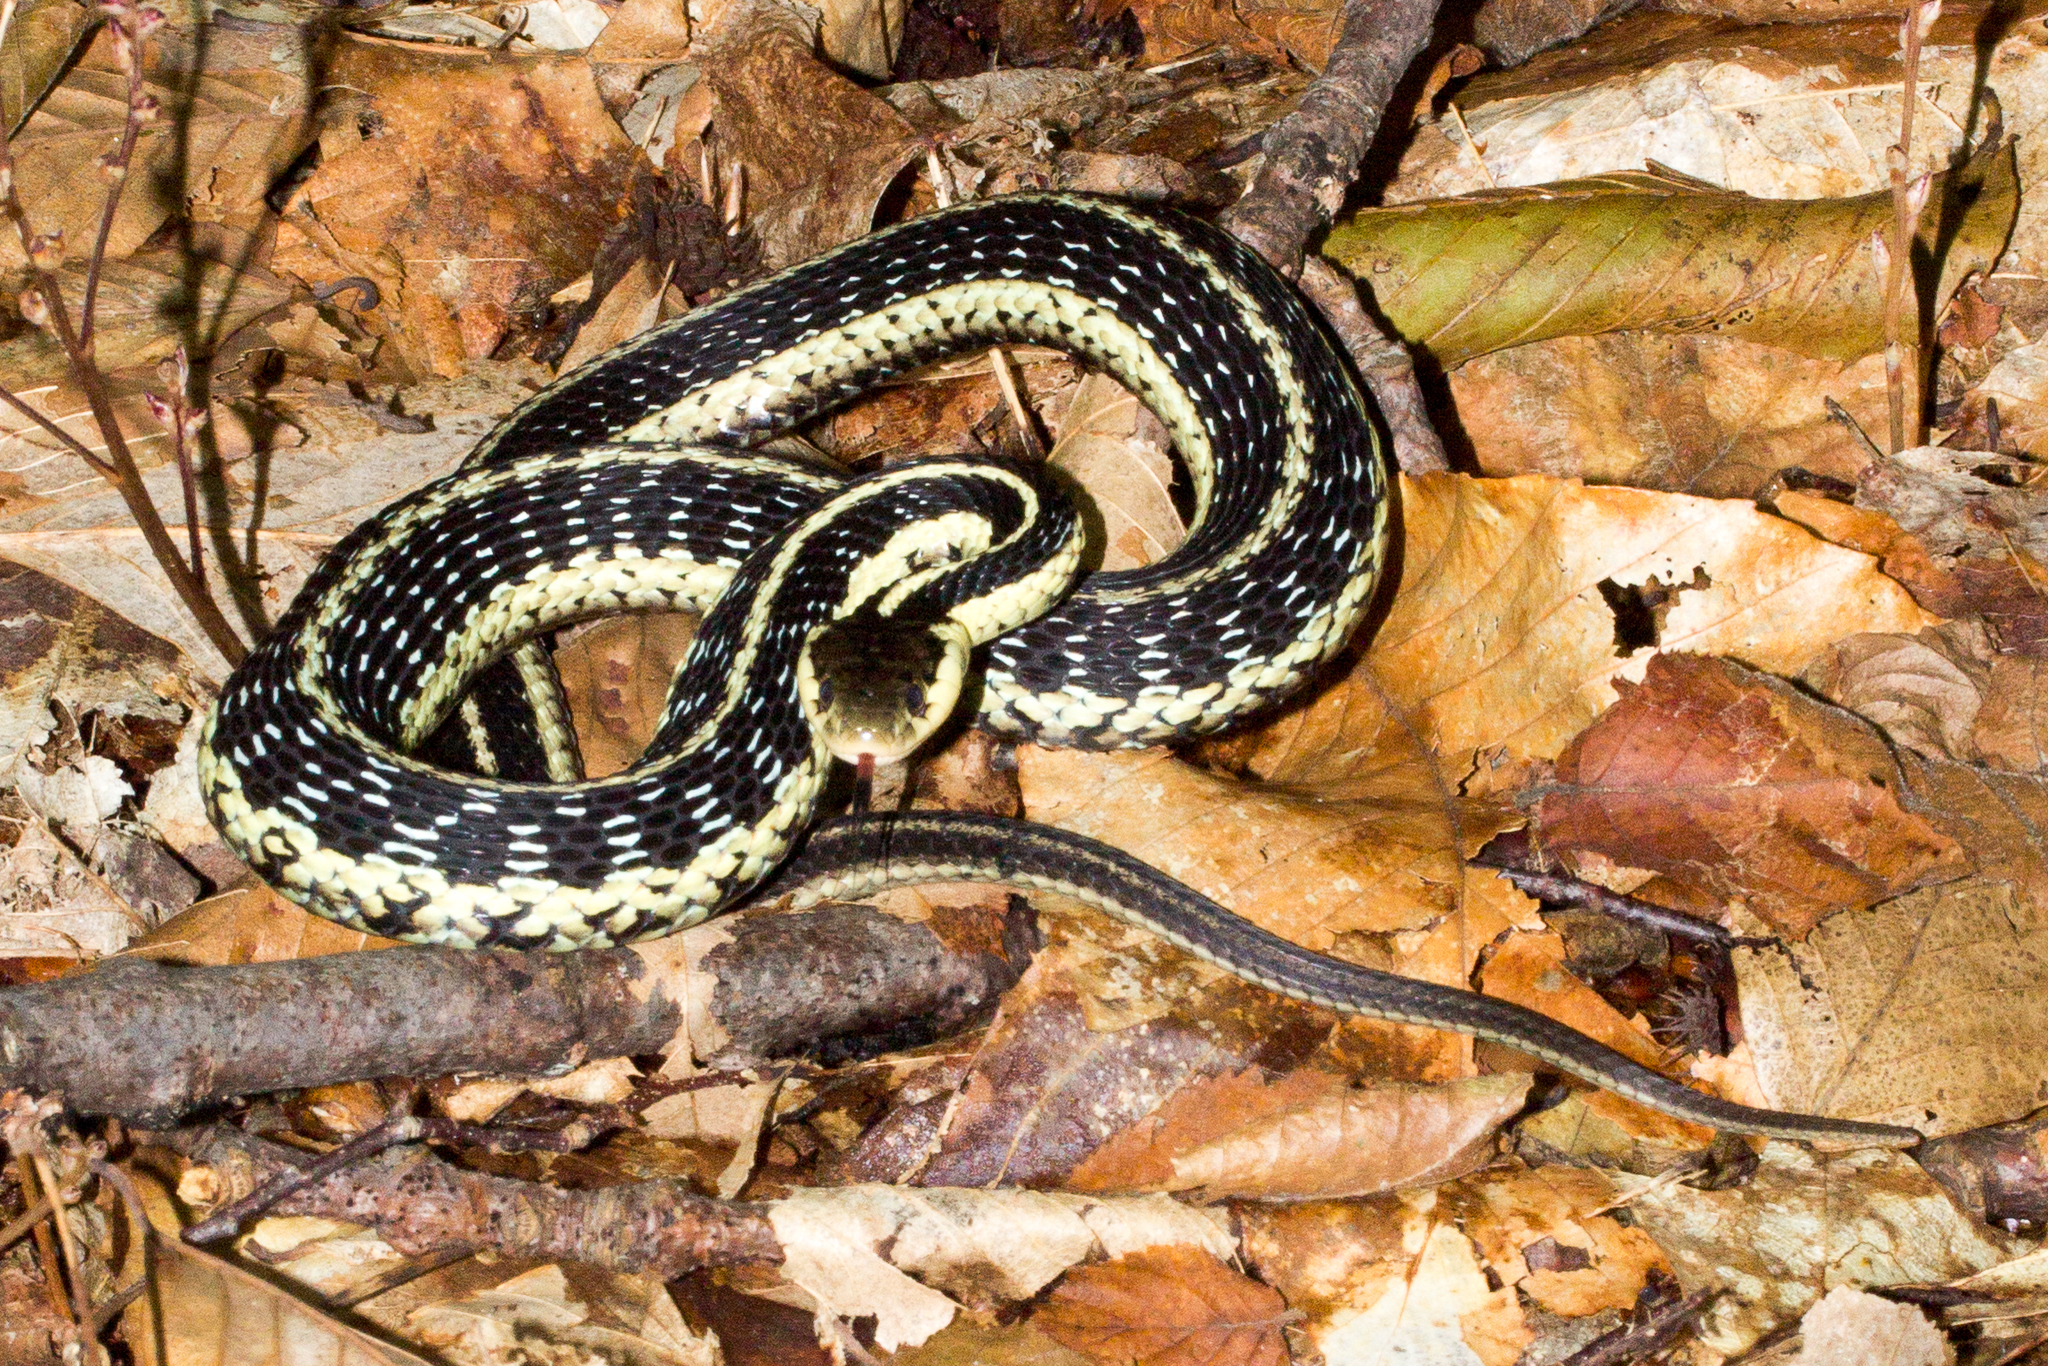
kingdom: Animalia
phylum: Chordata
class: Squamata
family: Colubridae
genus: Thamnophis
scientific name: Thamnophis sirtalis
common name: Common garter snake
